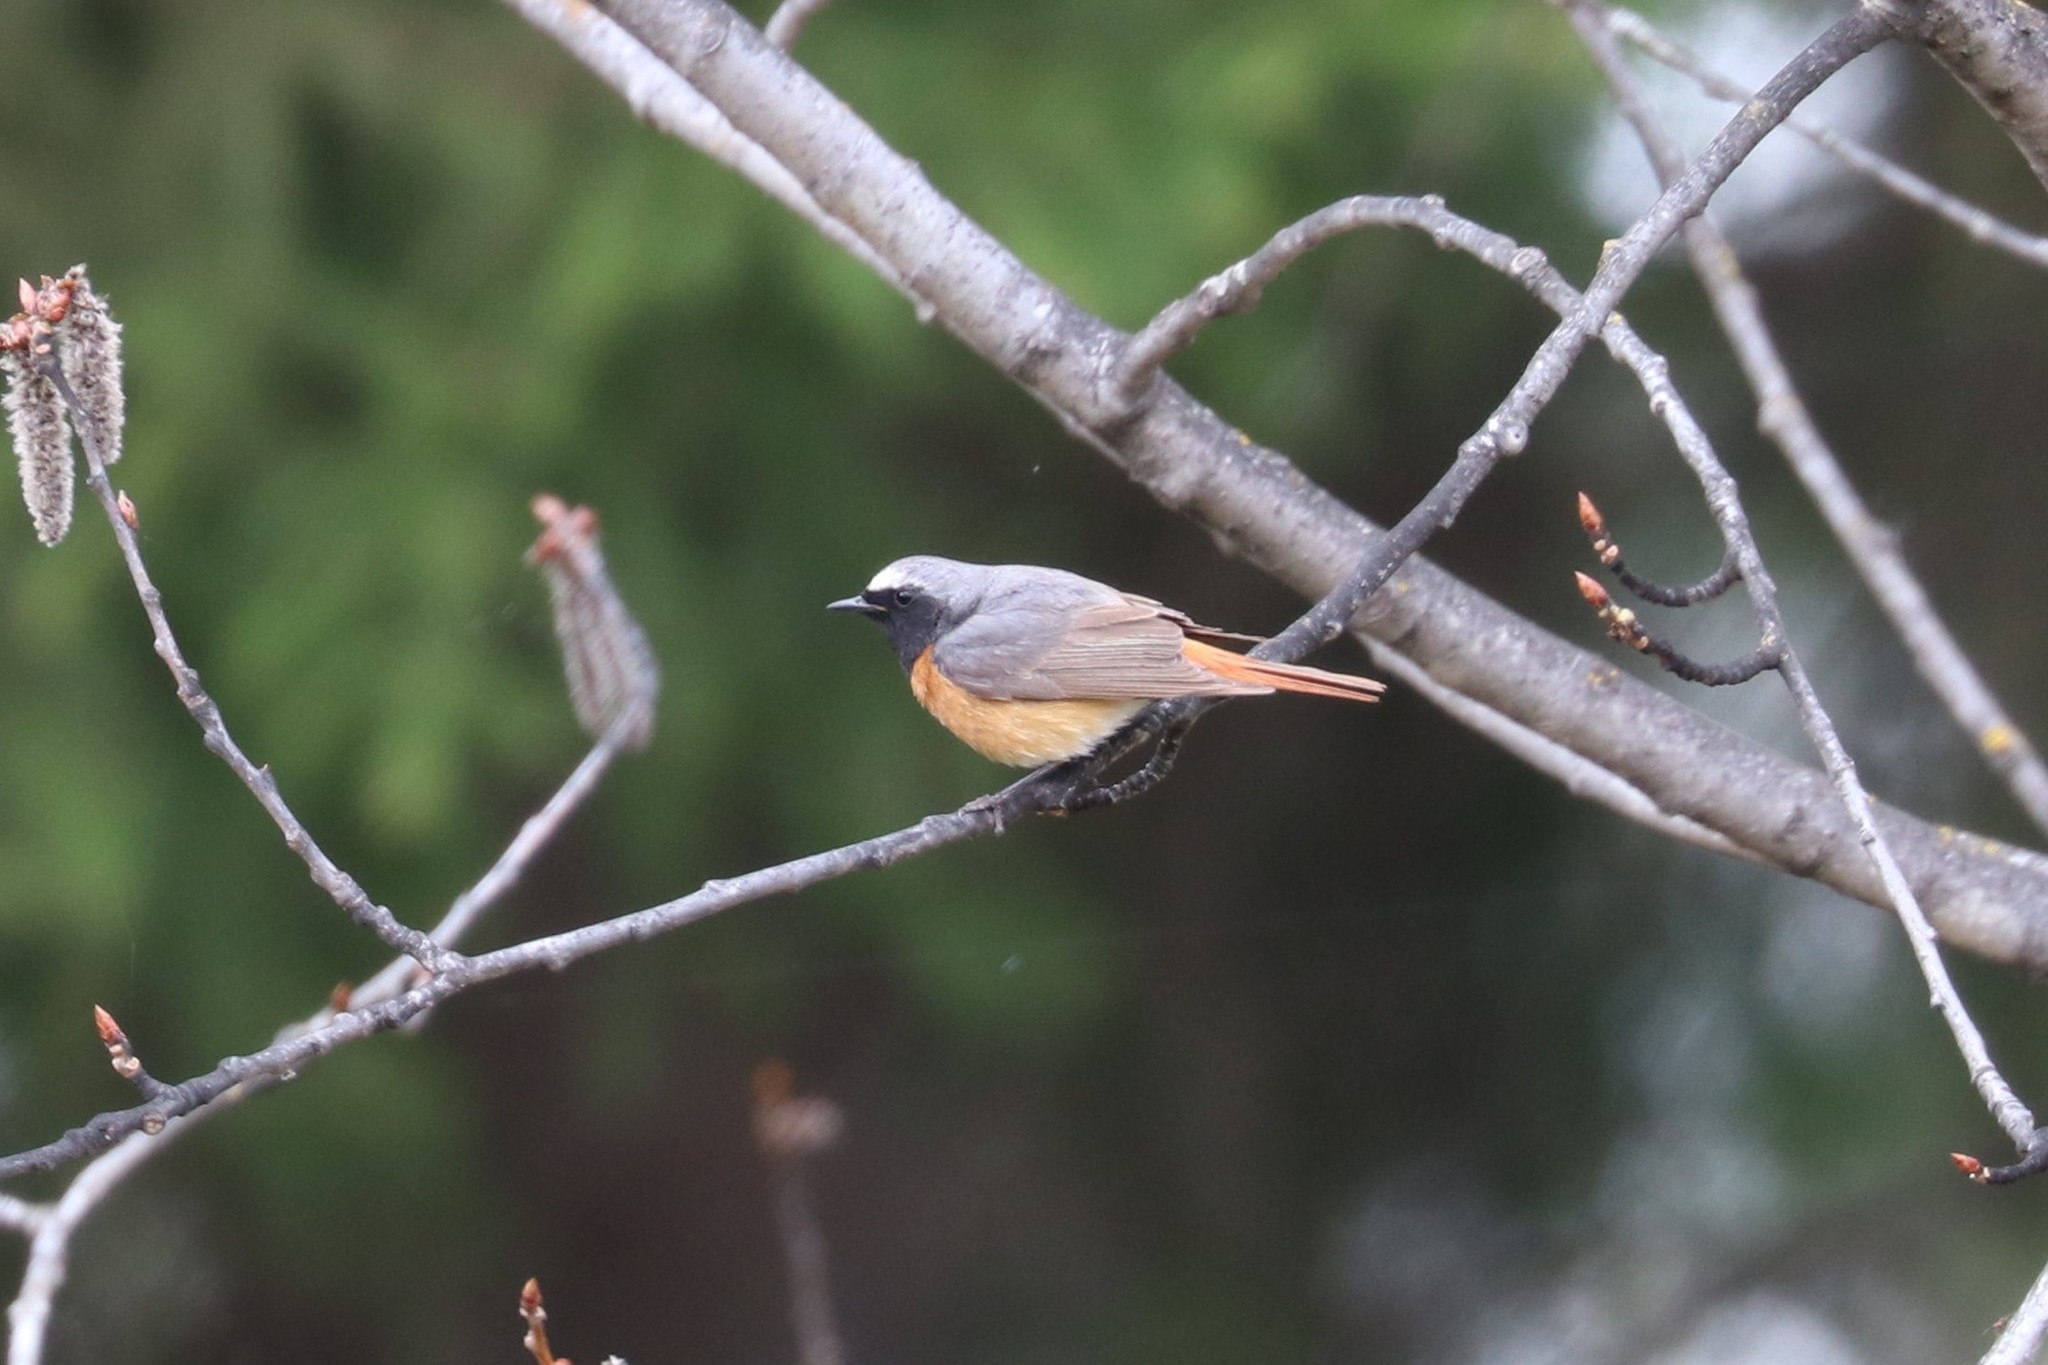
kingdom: Animalia
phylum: Chordata
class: Aves
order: Passeriformes
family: Muscicapidae
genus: Phoenicurus
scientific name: Phoenicurus phoenicurus
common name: Common redstart
